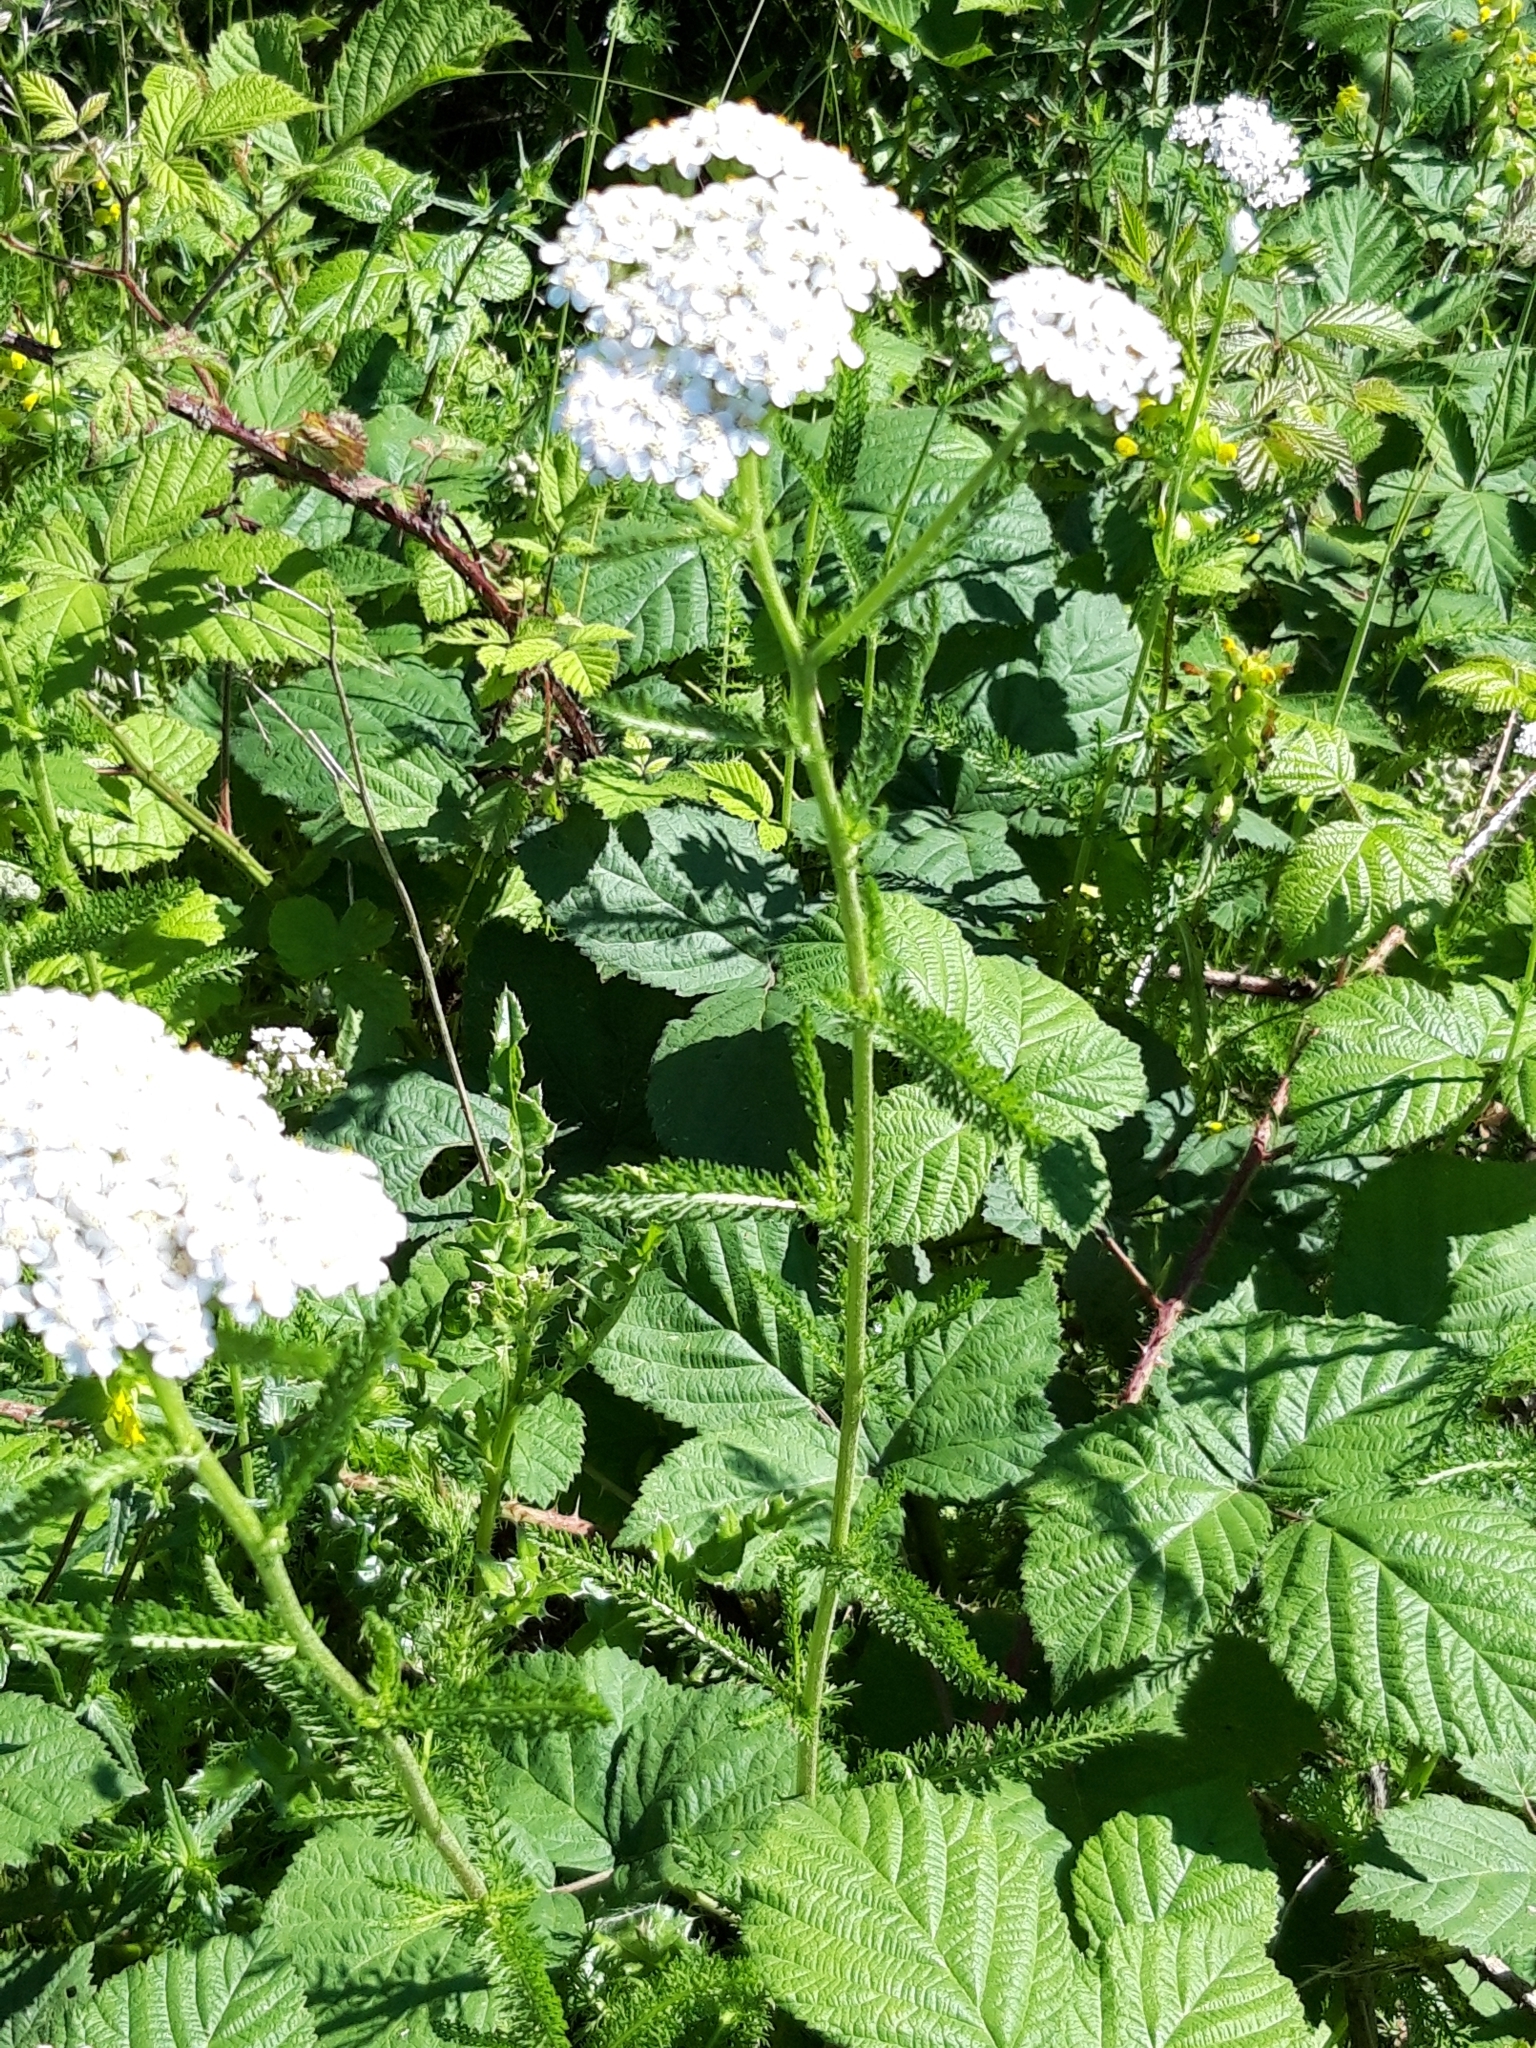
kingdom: Plantae
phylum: Tracheophyta
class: Magnoliopsida
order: Asterales
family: Asteraceae
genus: Achillea
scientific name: Achillea millefolium
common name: Yarrow
